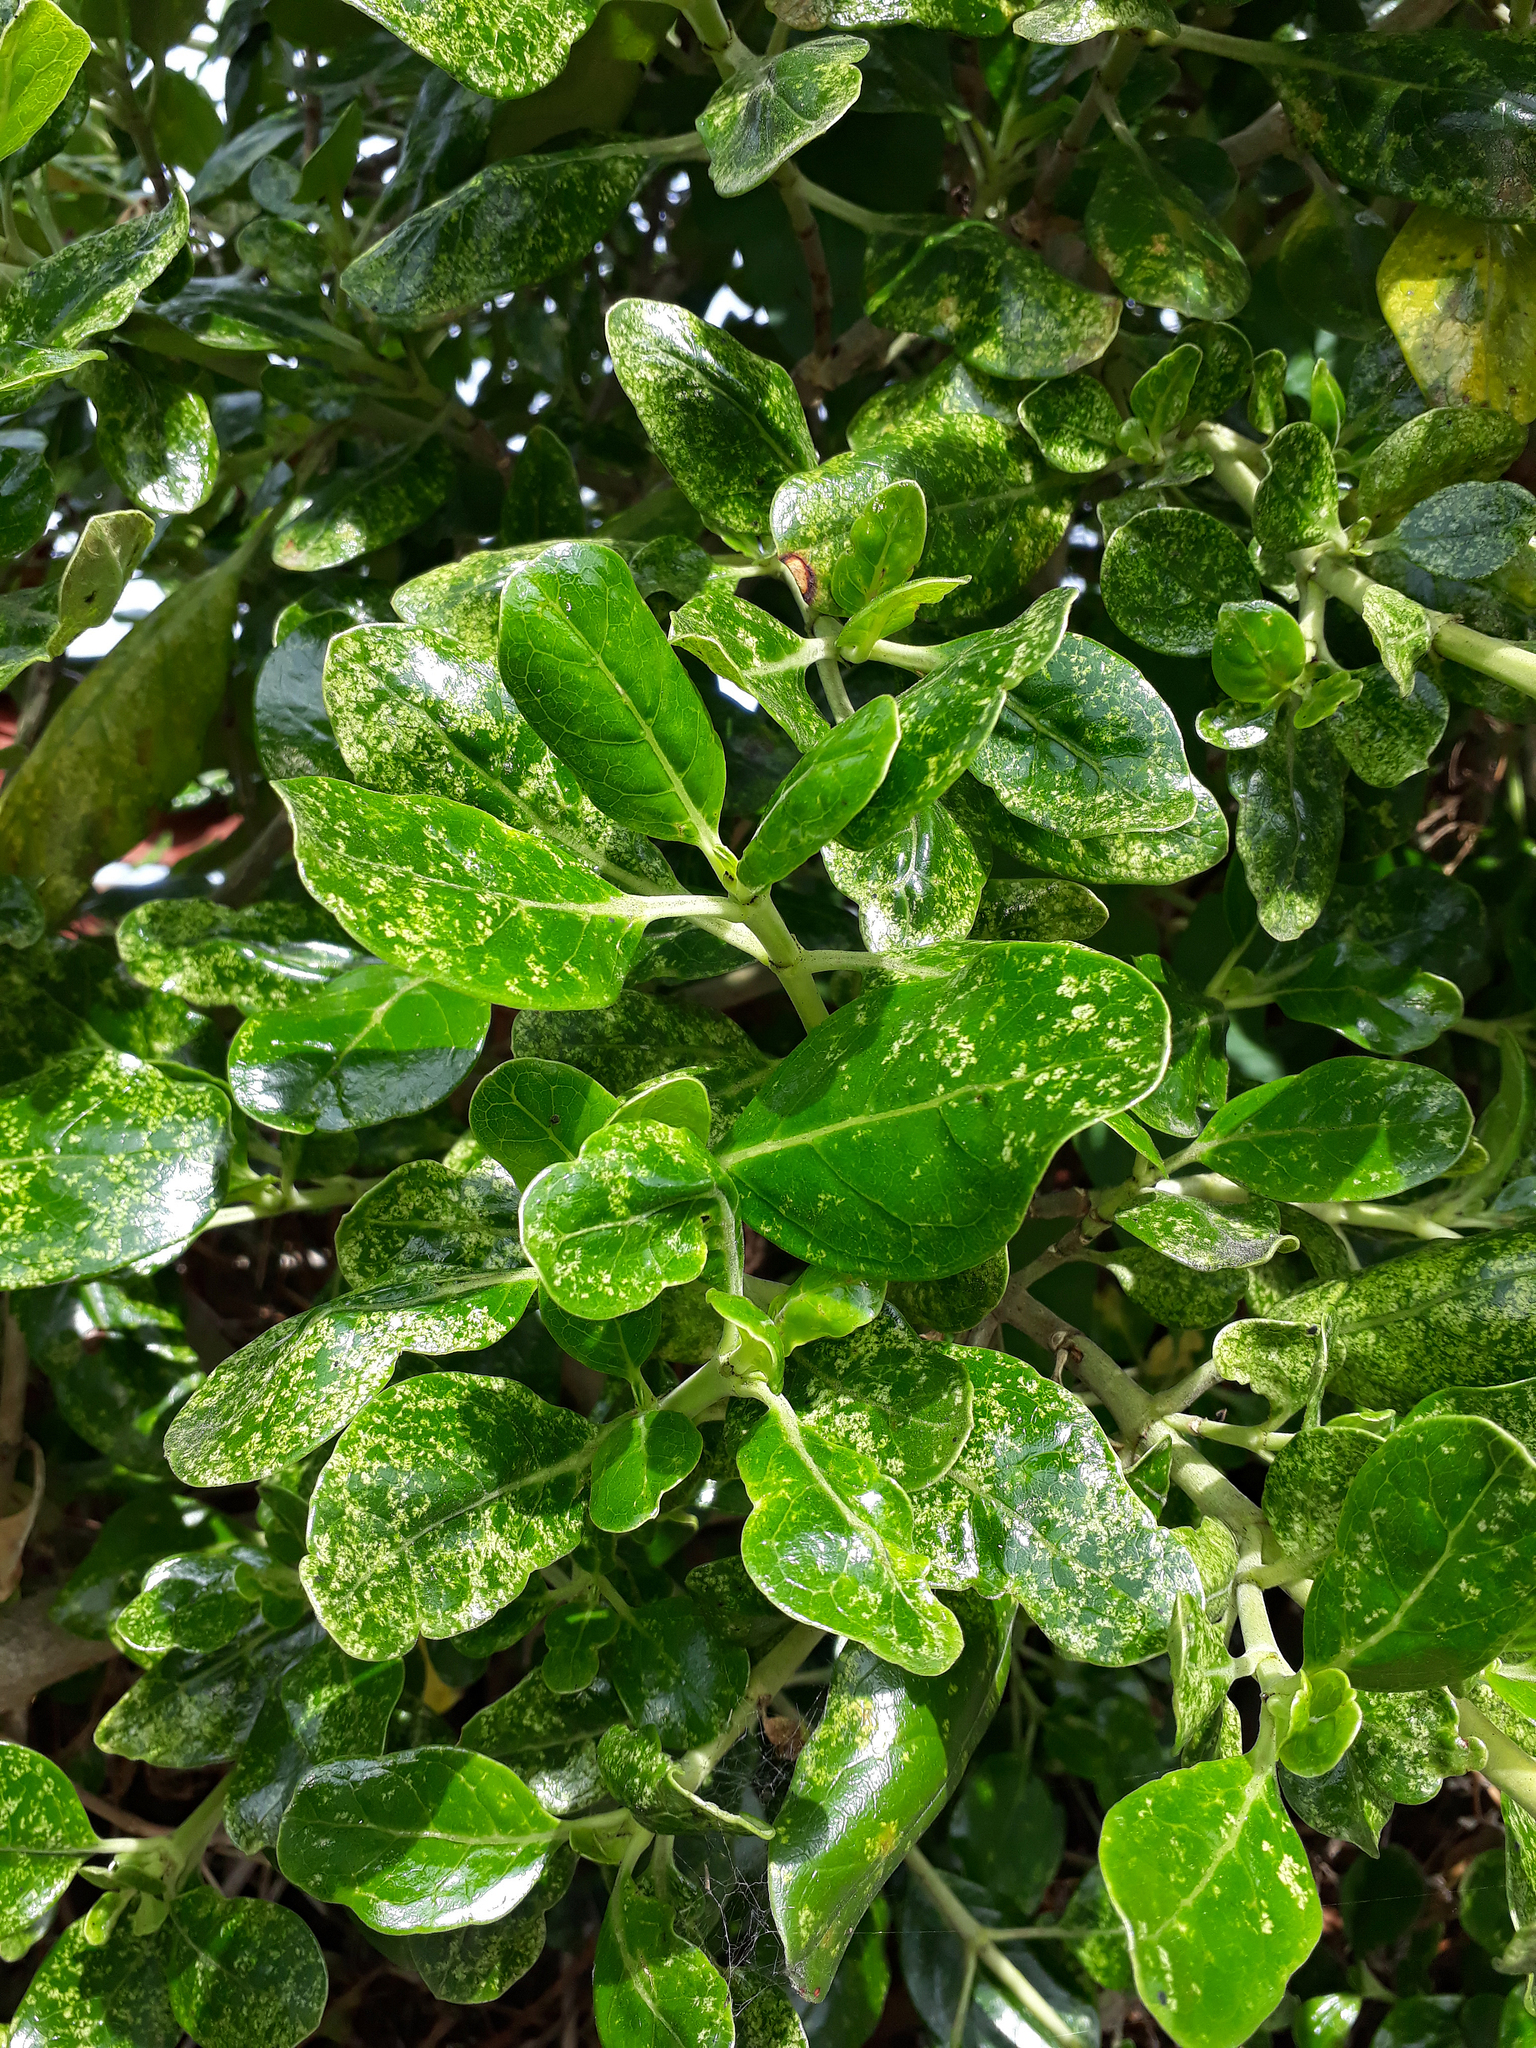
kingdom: Plantae
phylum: Tracheophyta
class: Magnoliopsida
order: Gentianales
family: Rubiaceae
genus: Coprosma
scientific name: Coprosma repens
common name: Tree bedstraw
